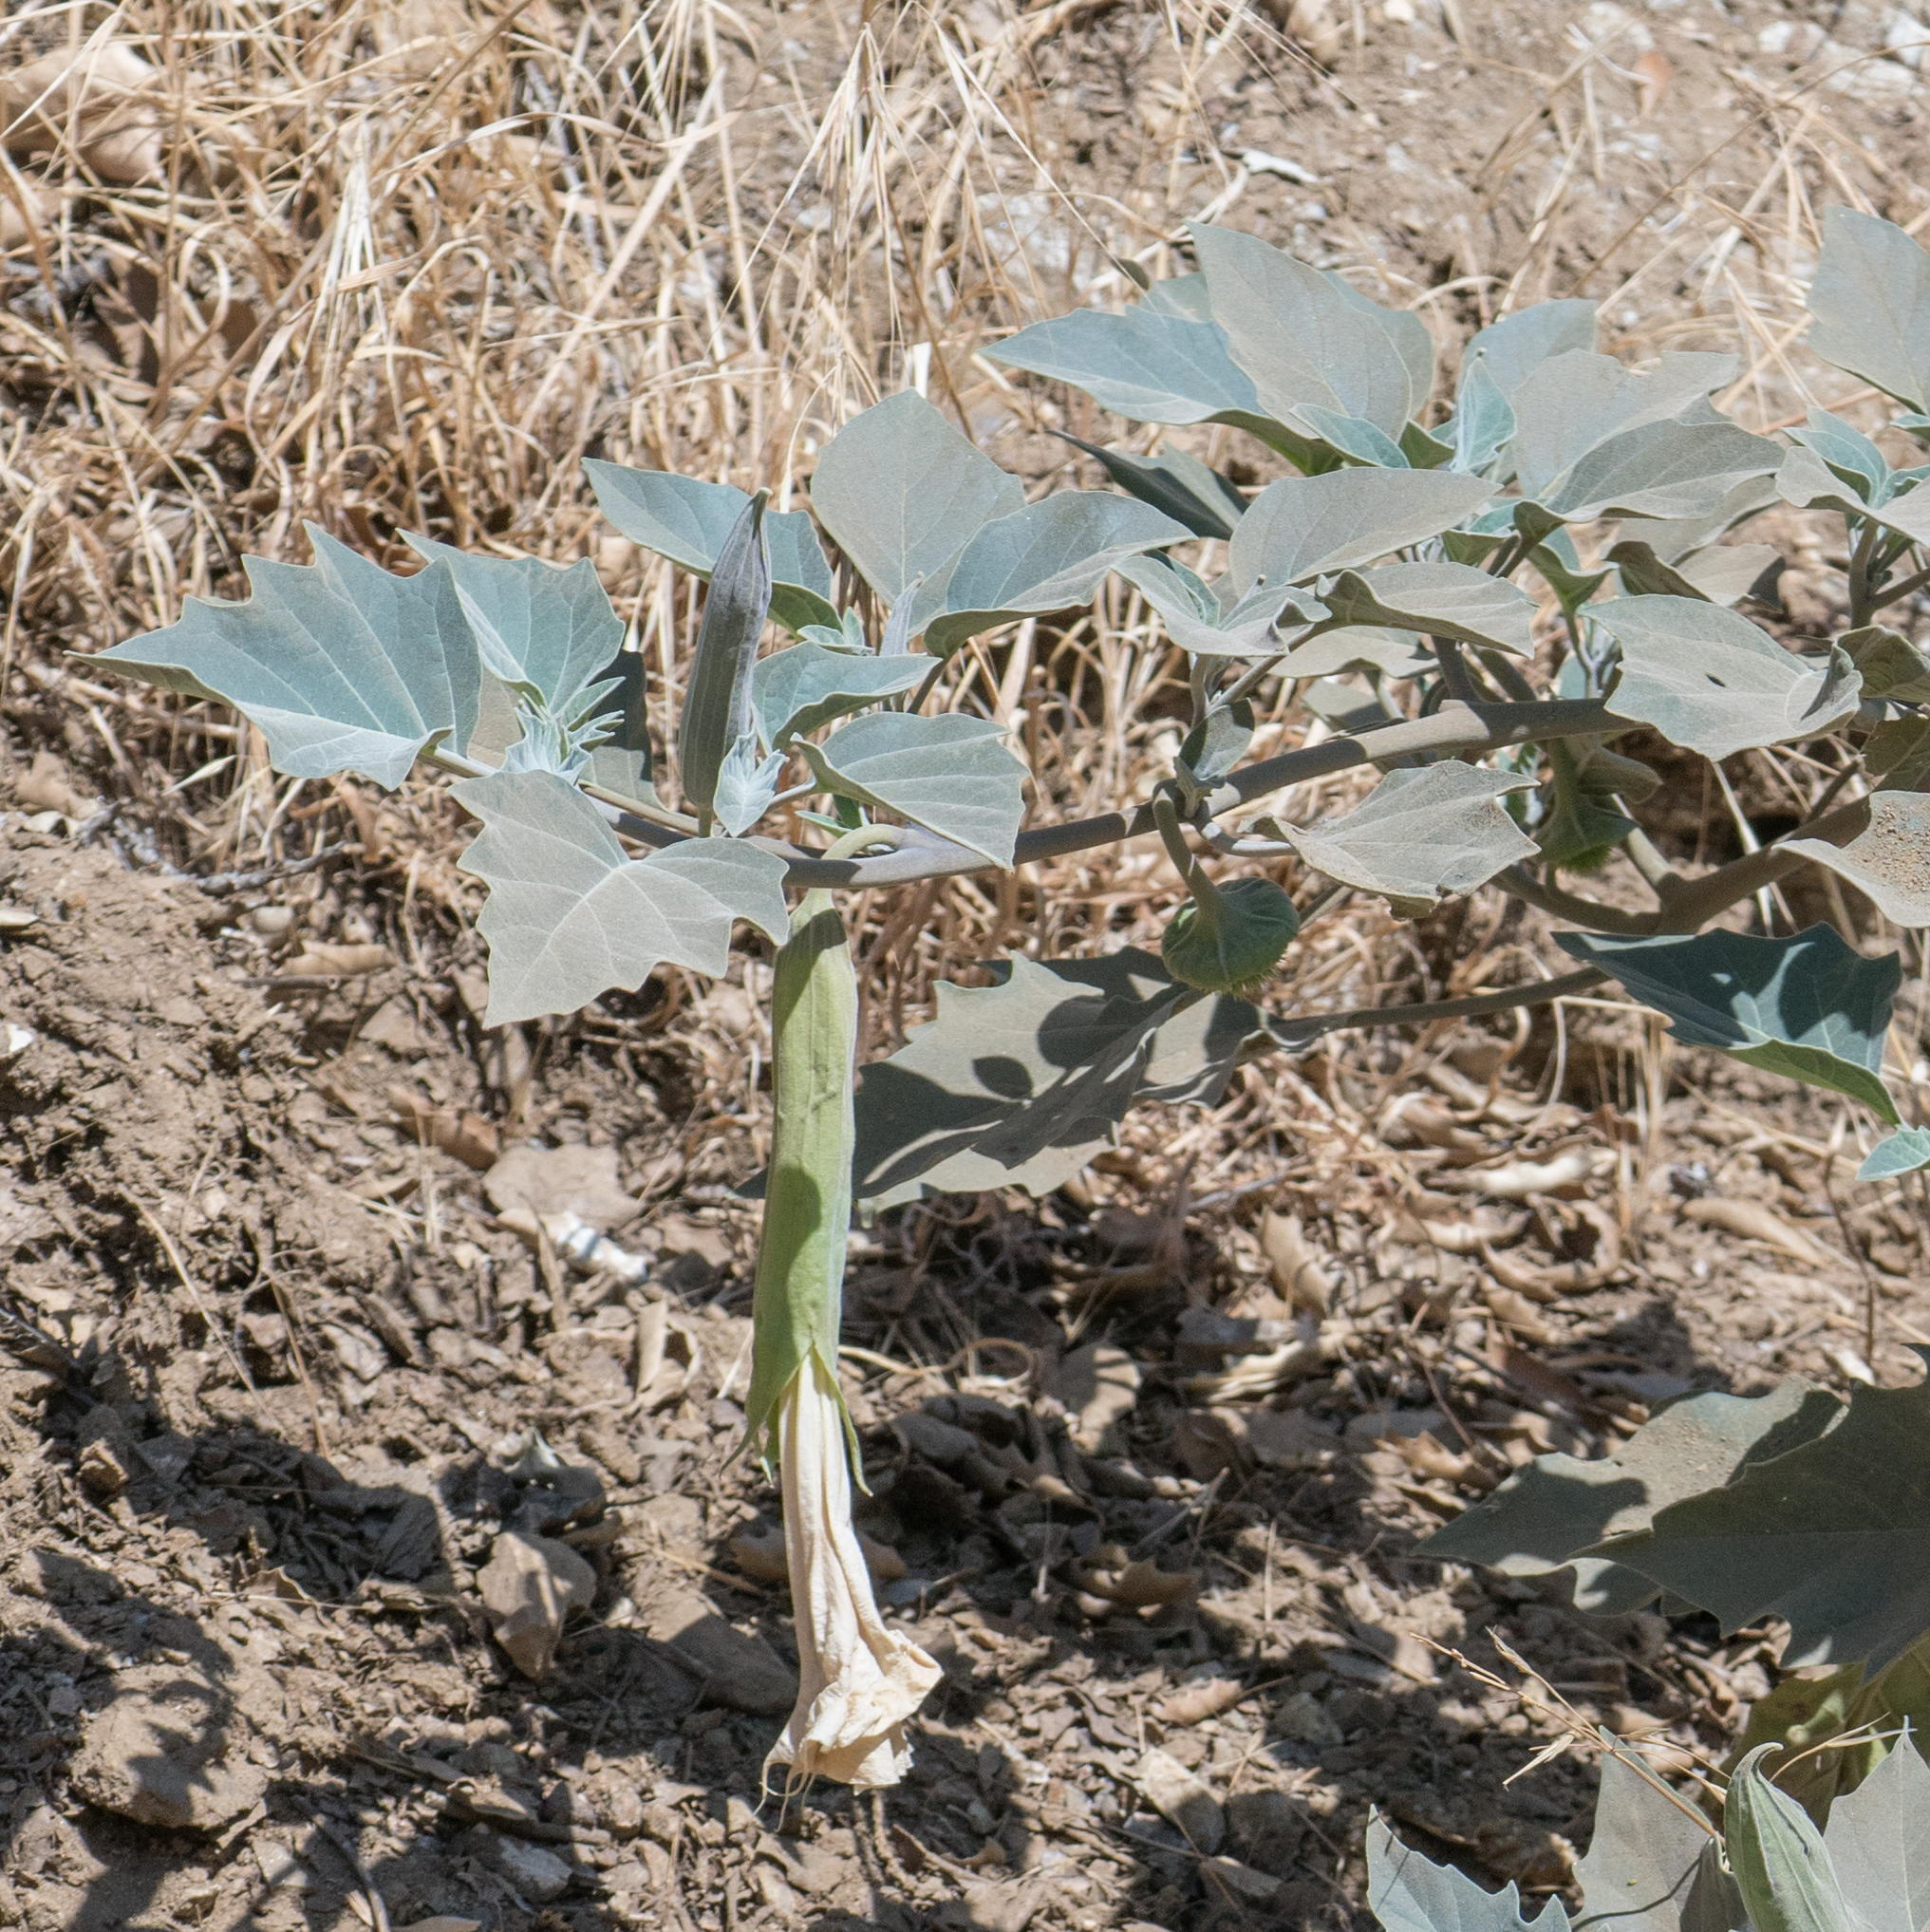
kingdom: Plantae
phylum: Tracheophyta
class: Magnoliopsida
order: Solanales
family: Solanaceae
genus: Datura
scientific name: Datura wrightii
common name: Sacred thorn-apple
